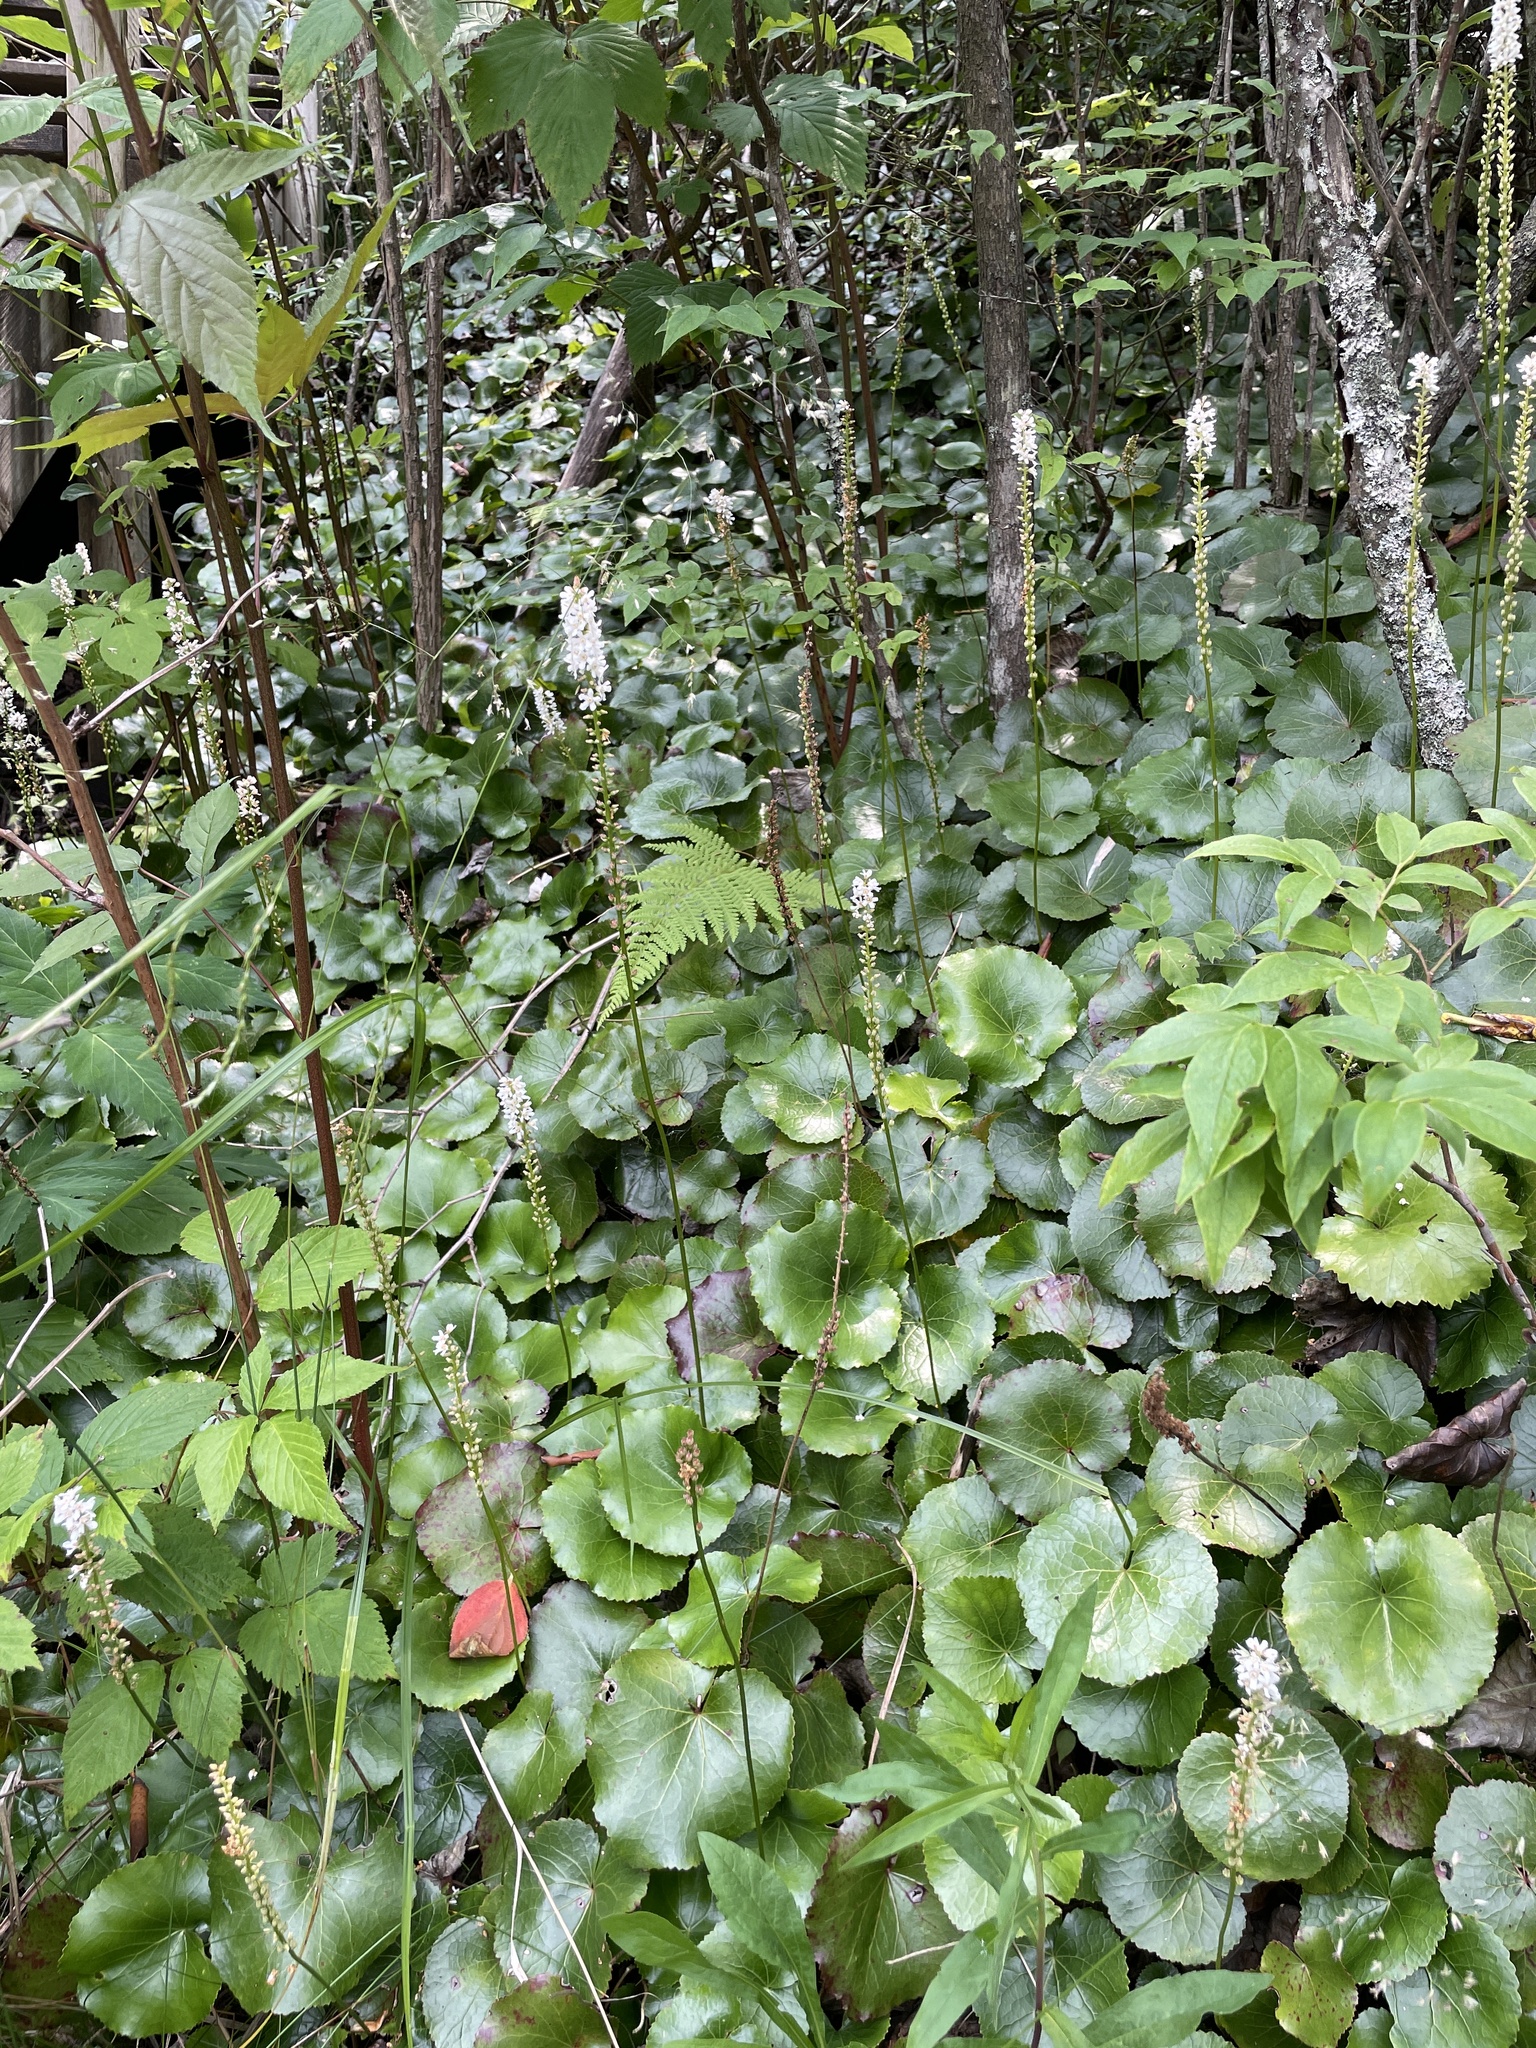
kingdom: Plantae
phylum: Tracheophyta
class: Magnoliopsida
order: Ericales
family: Diapensiaceae
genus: Galax
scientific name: Galax urceolata
